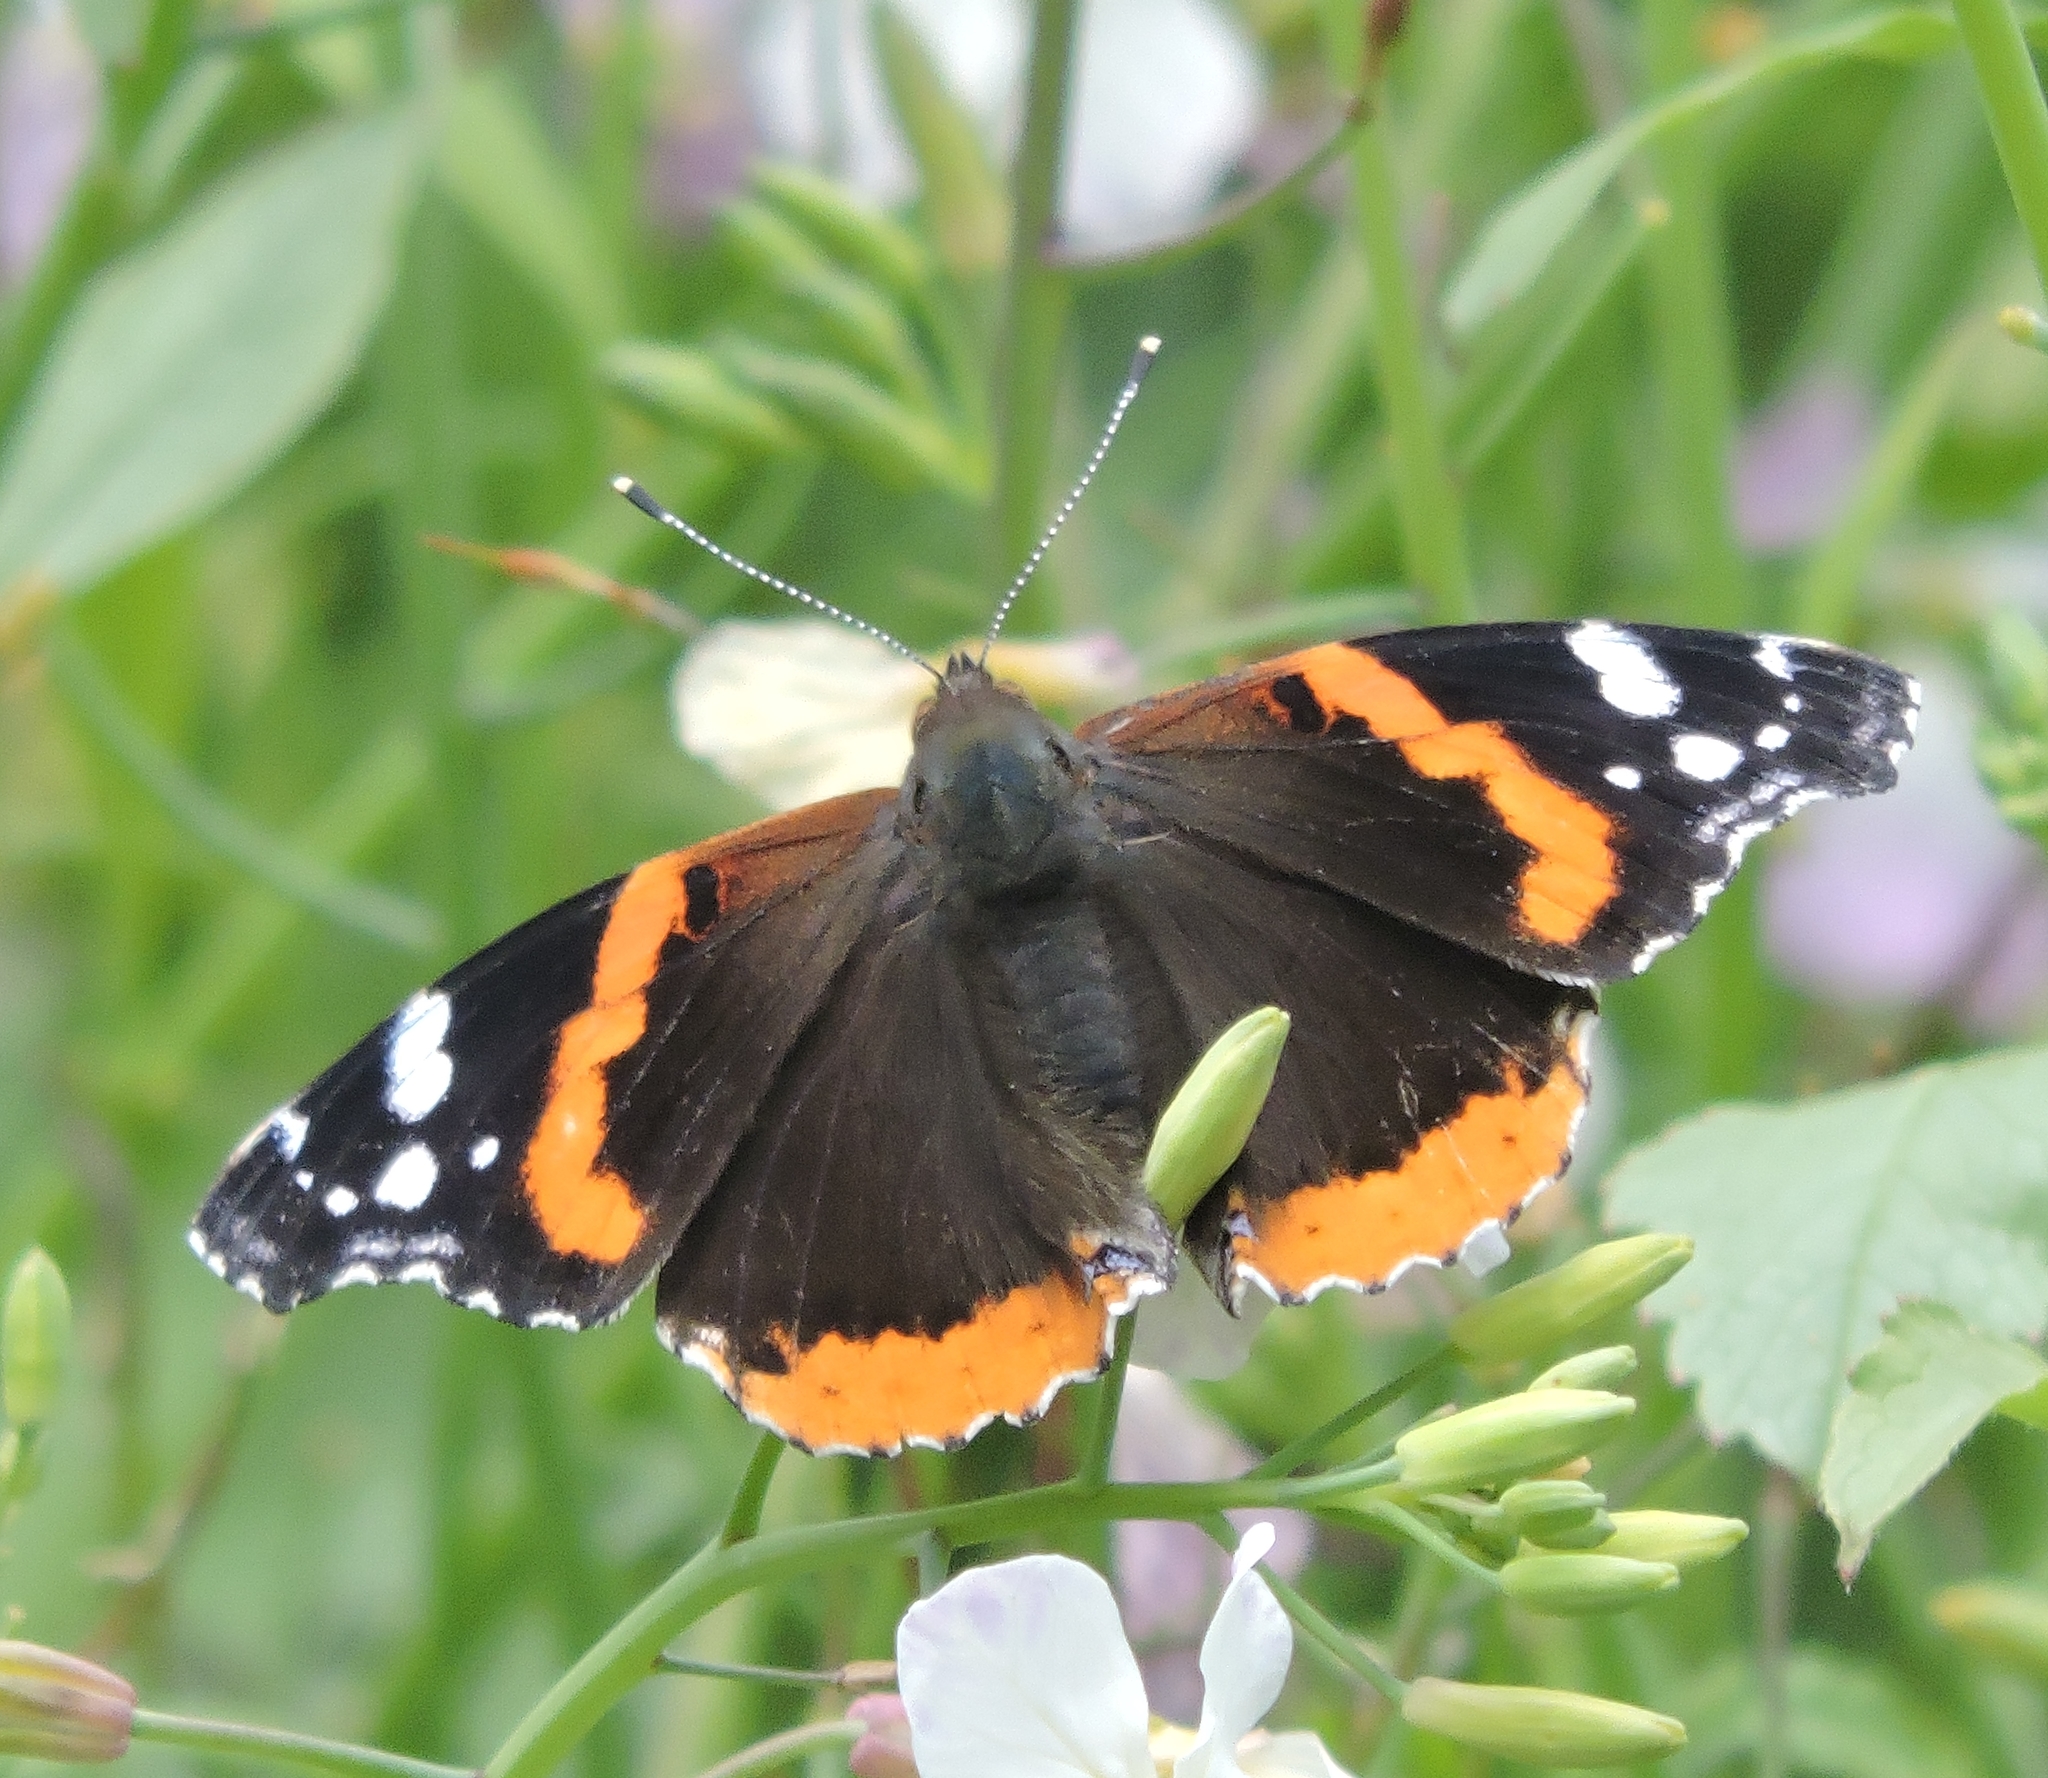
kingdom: Animalia
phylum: Arthropoda
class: Insecta
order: Lepidoptera
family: Nymphalidae
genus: Vanessa
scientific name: Vanessa atalanta
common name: Red admiral
